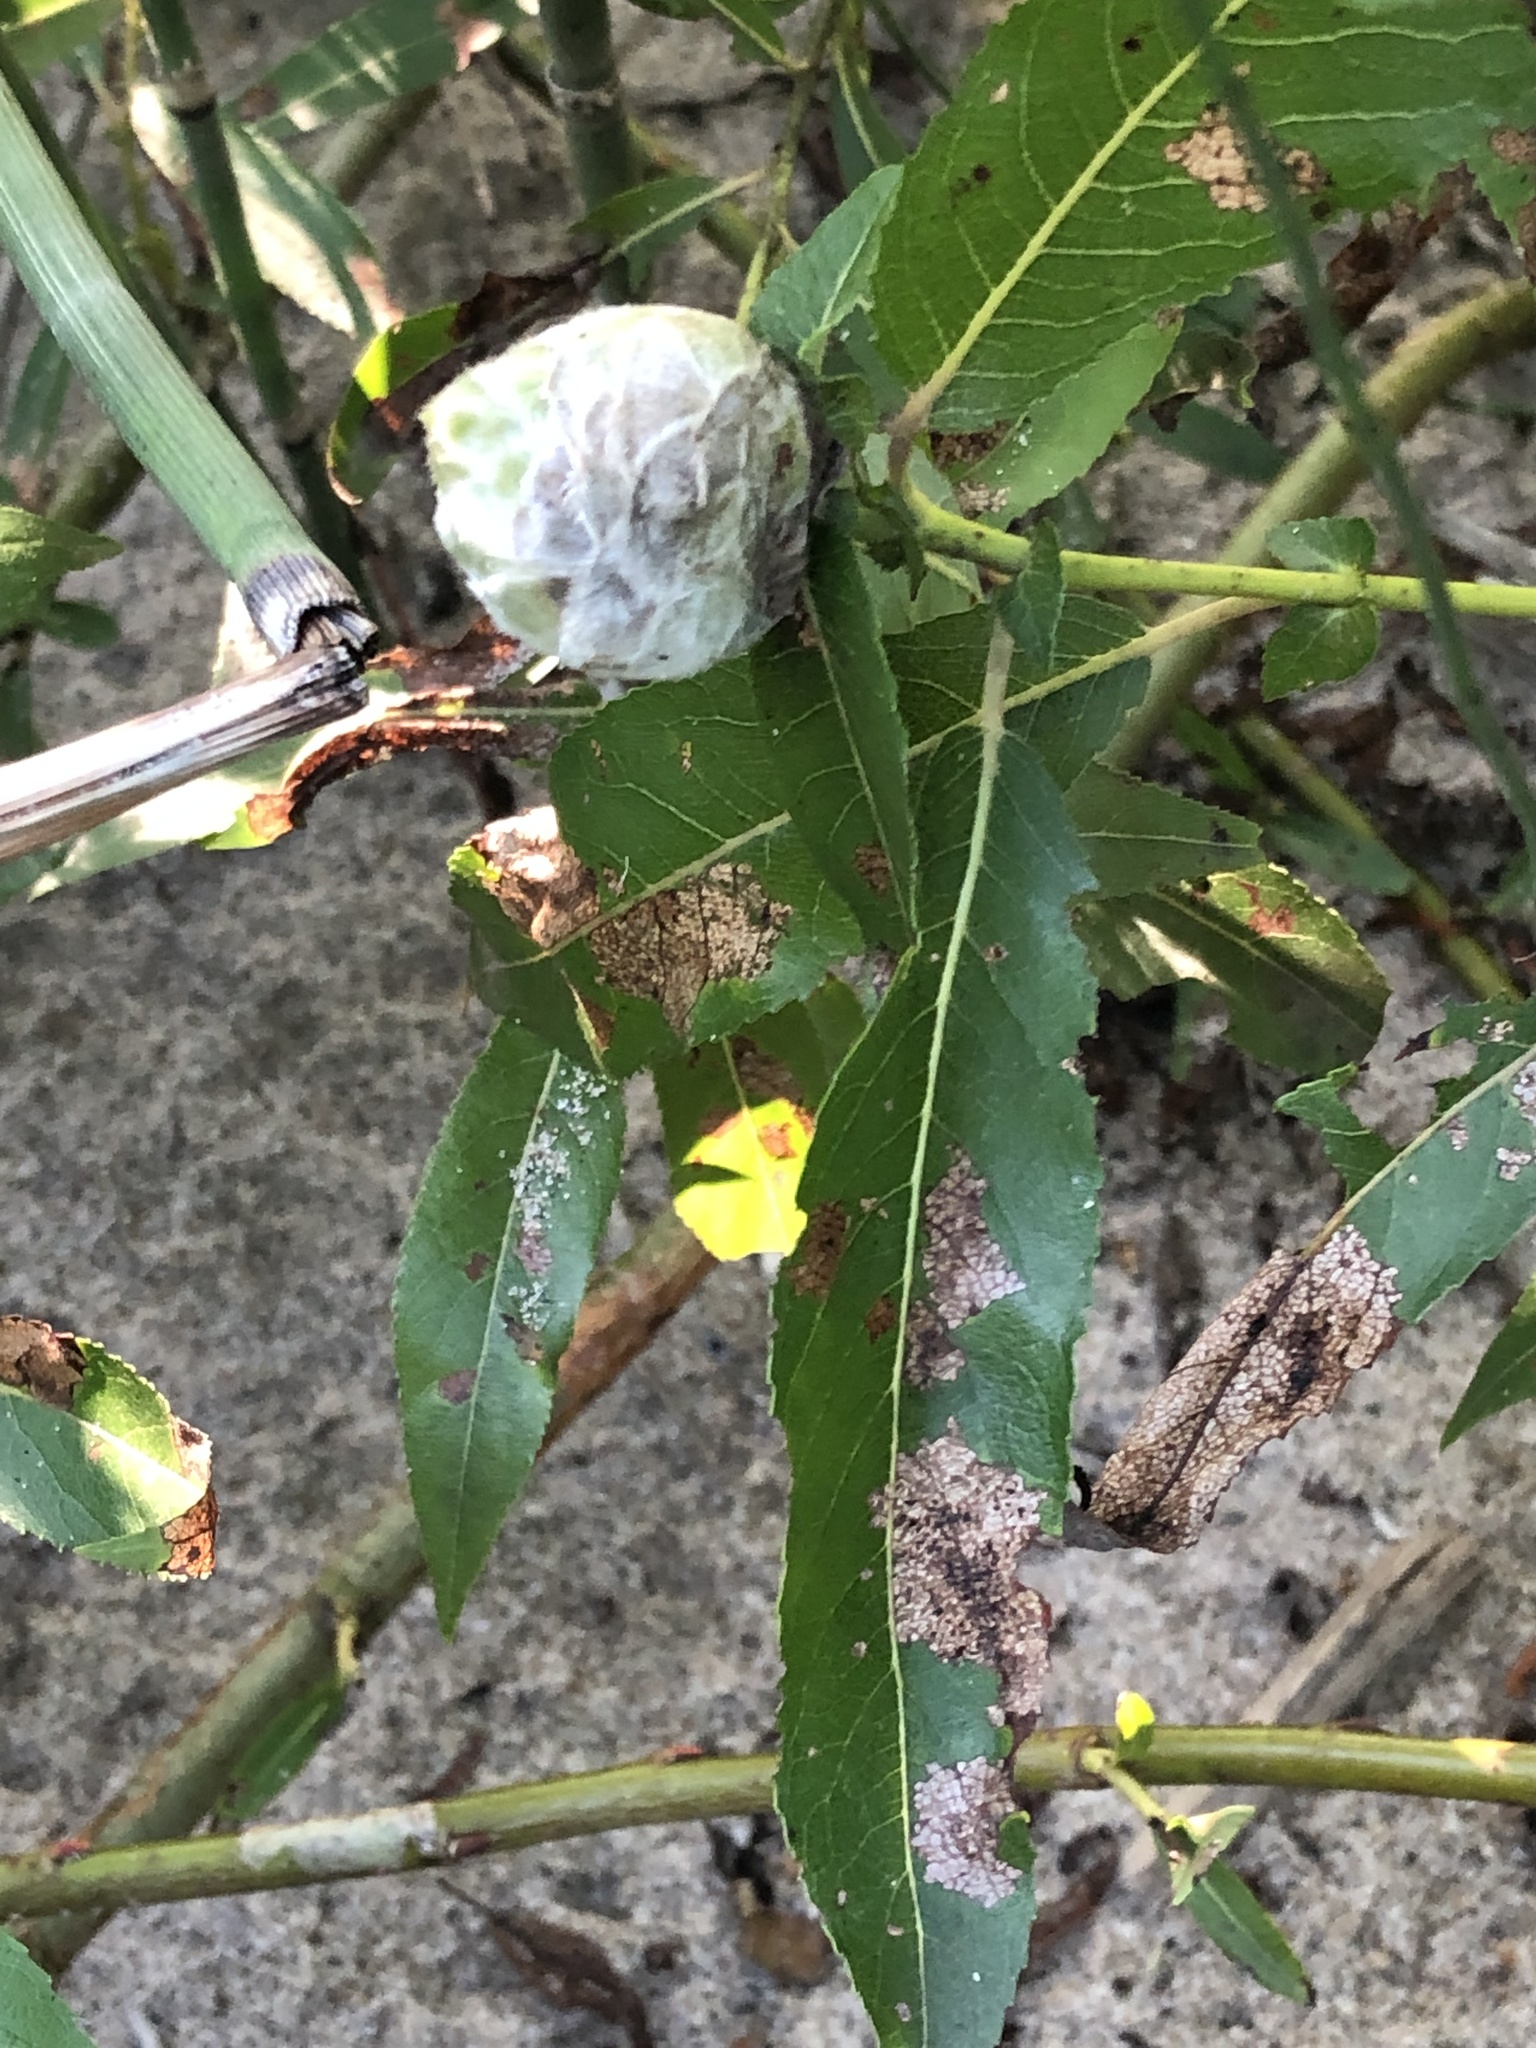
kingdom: Animalia
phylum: Arthropoda
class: Insecta
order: Diptera
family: Cecidomyiidae
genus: Rabdophaga
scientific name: Rabdophaga strobiloides
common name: Willow pinecone gall midge
